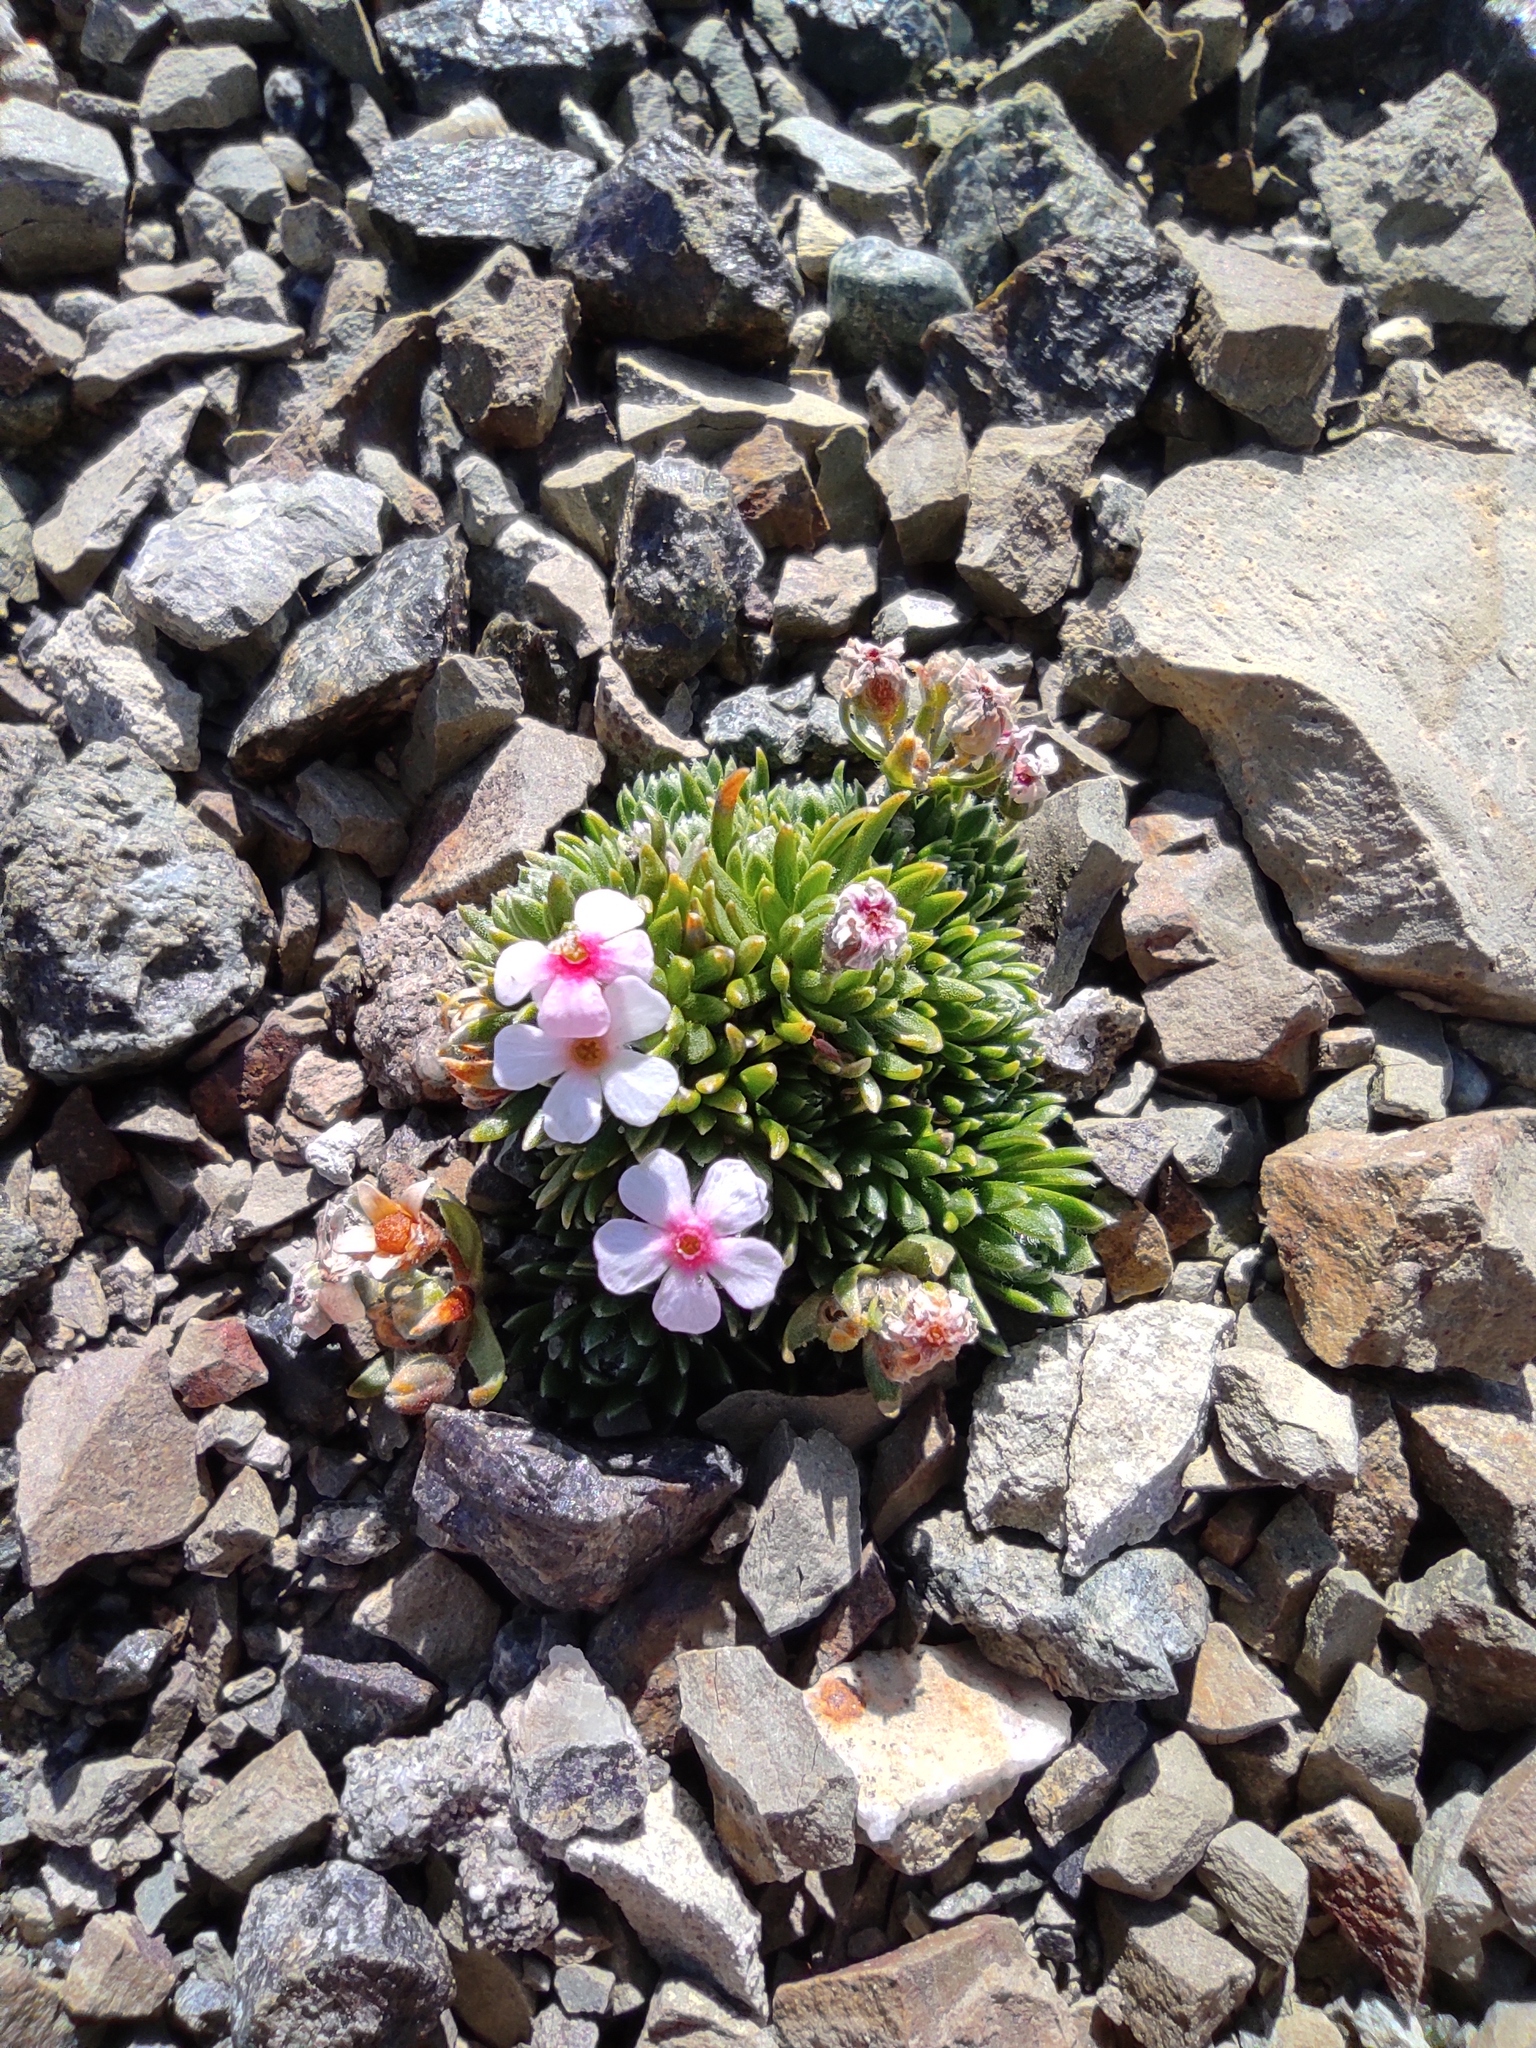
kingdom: Plantae
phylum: Tracheophyta
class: Magnoliopsida
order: Ericales
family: Primulaceae
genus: Androsace
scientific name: Androsace villosa
